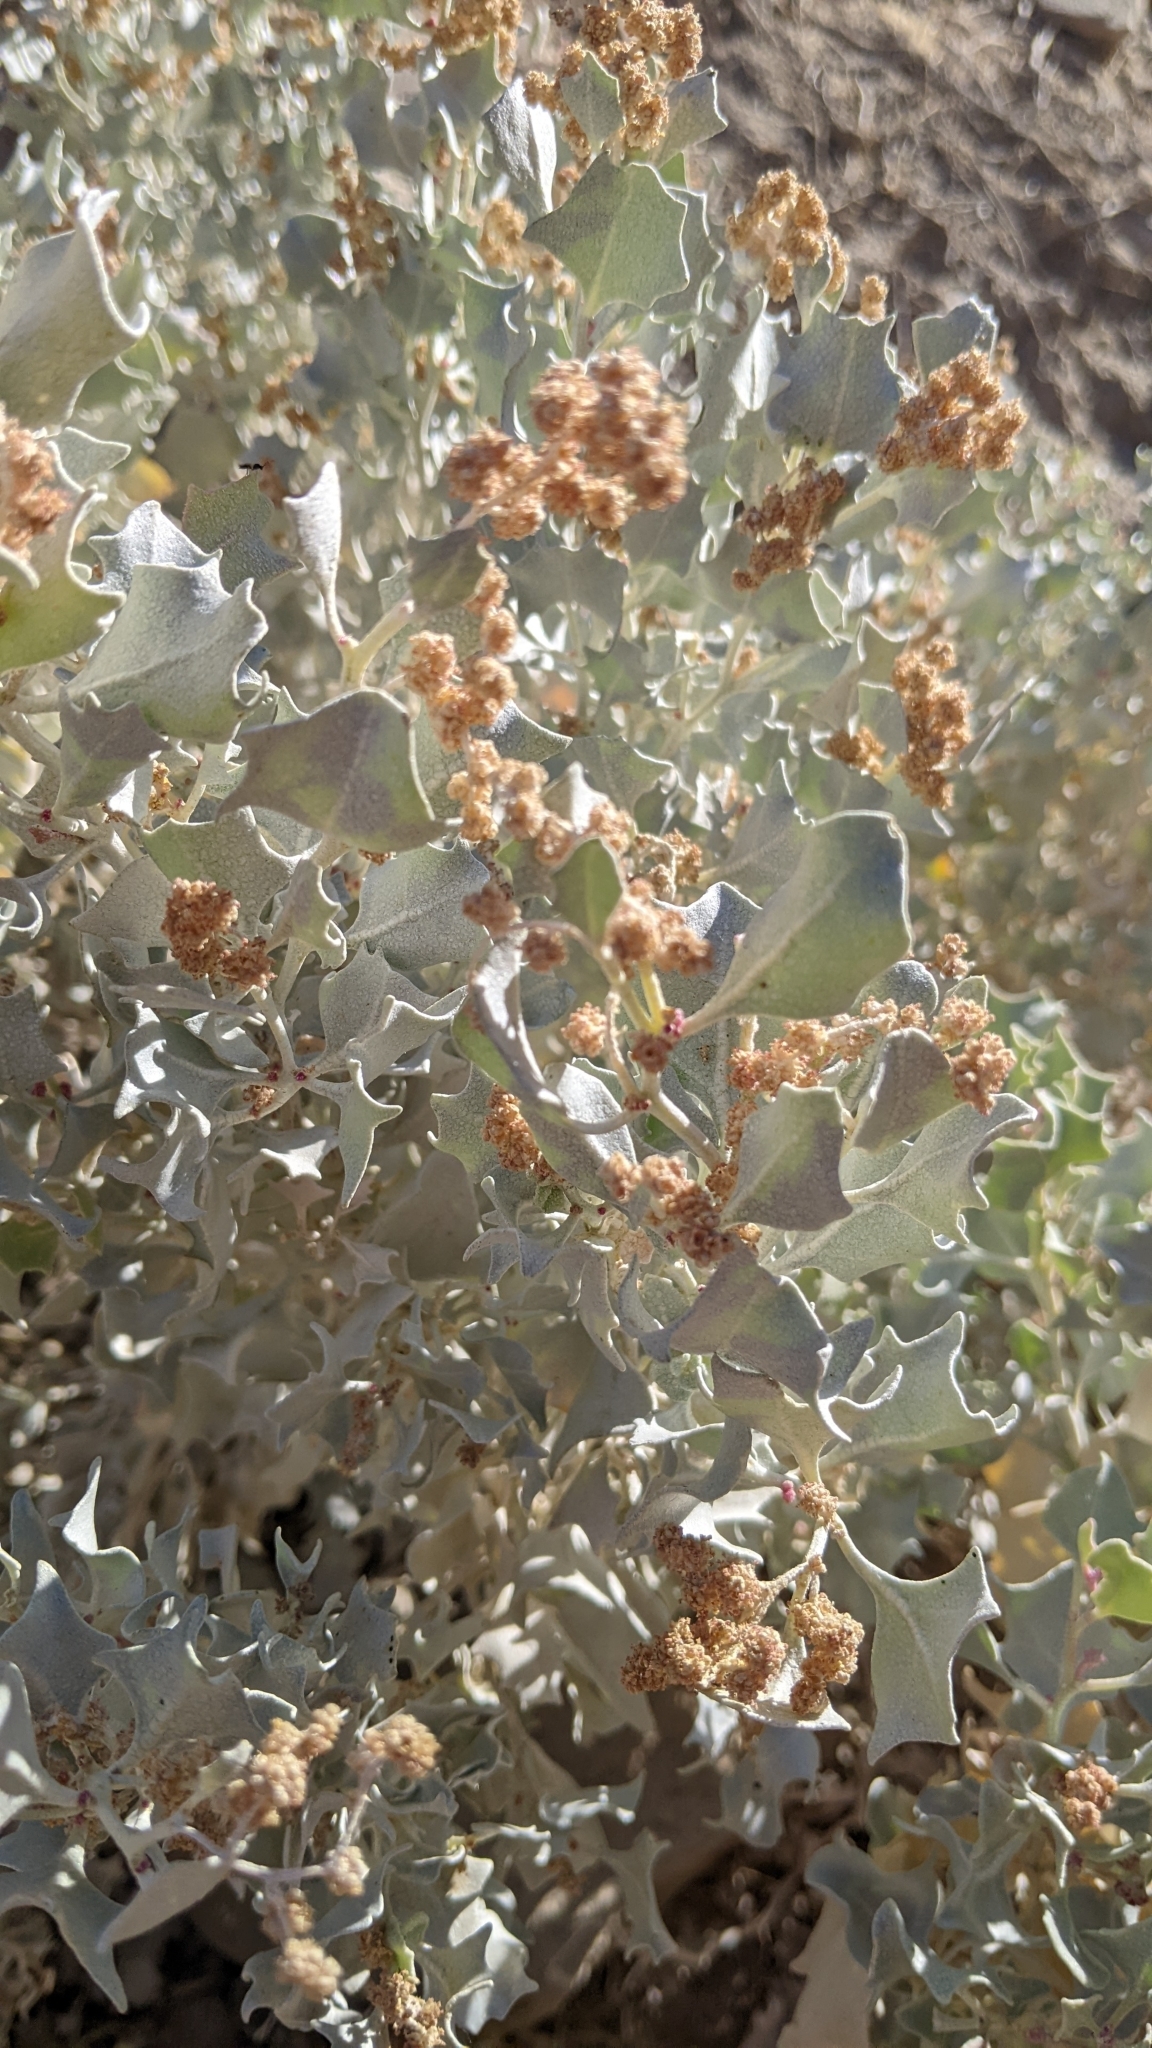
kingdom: Plantae
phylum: Tracheophyta
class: Magnoliopsida
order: Caryophyllales
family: Amaranthaceae
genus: Atriplex
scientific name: Atriplex hymenelytra
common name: Desert-holly
